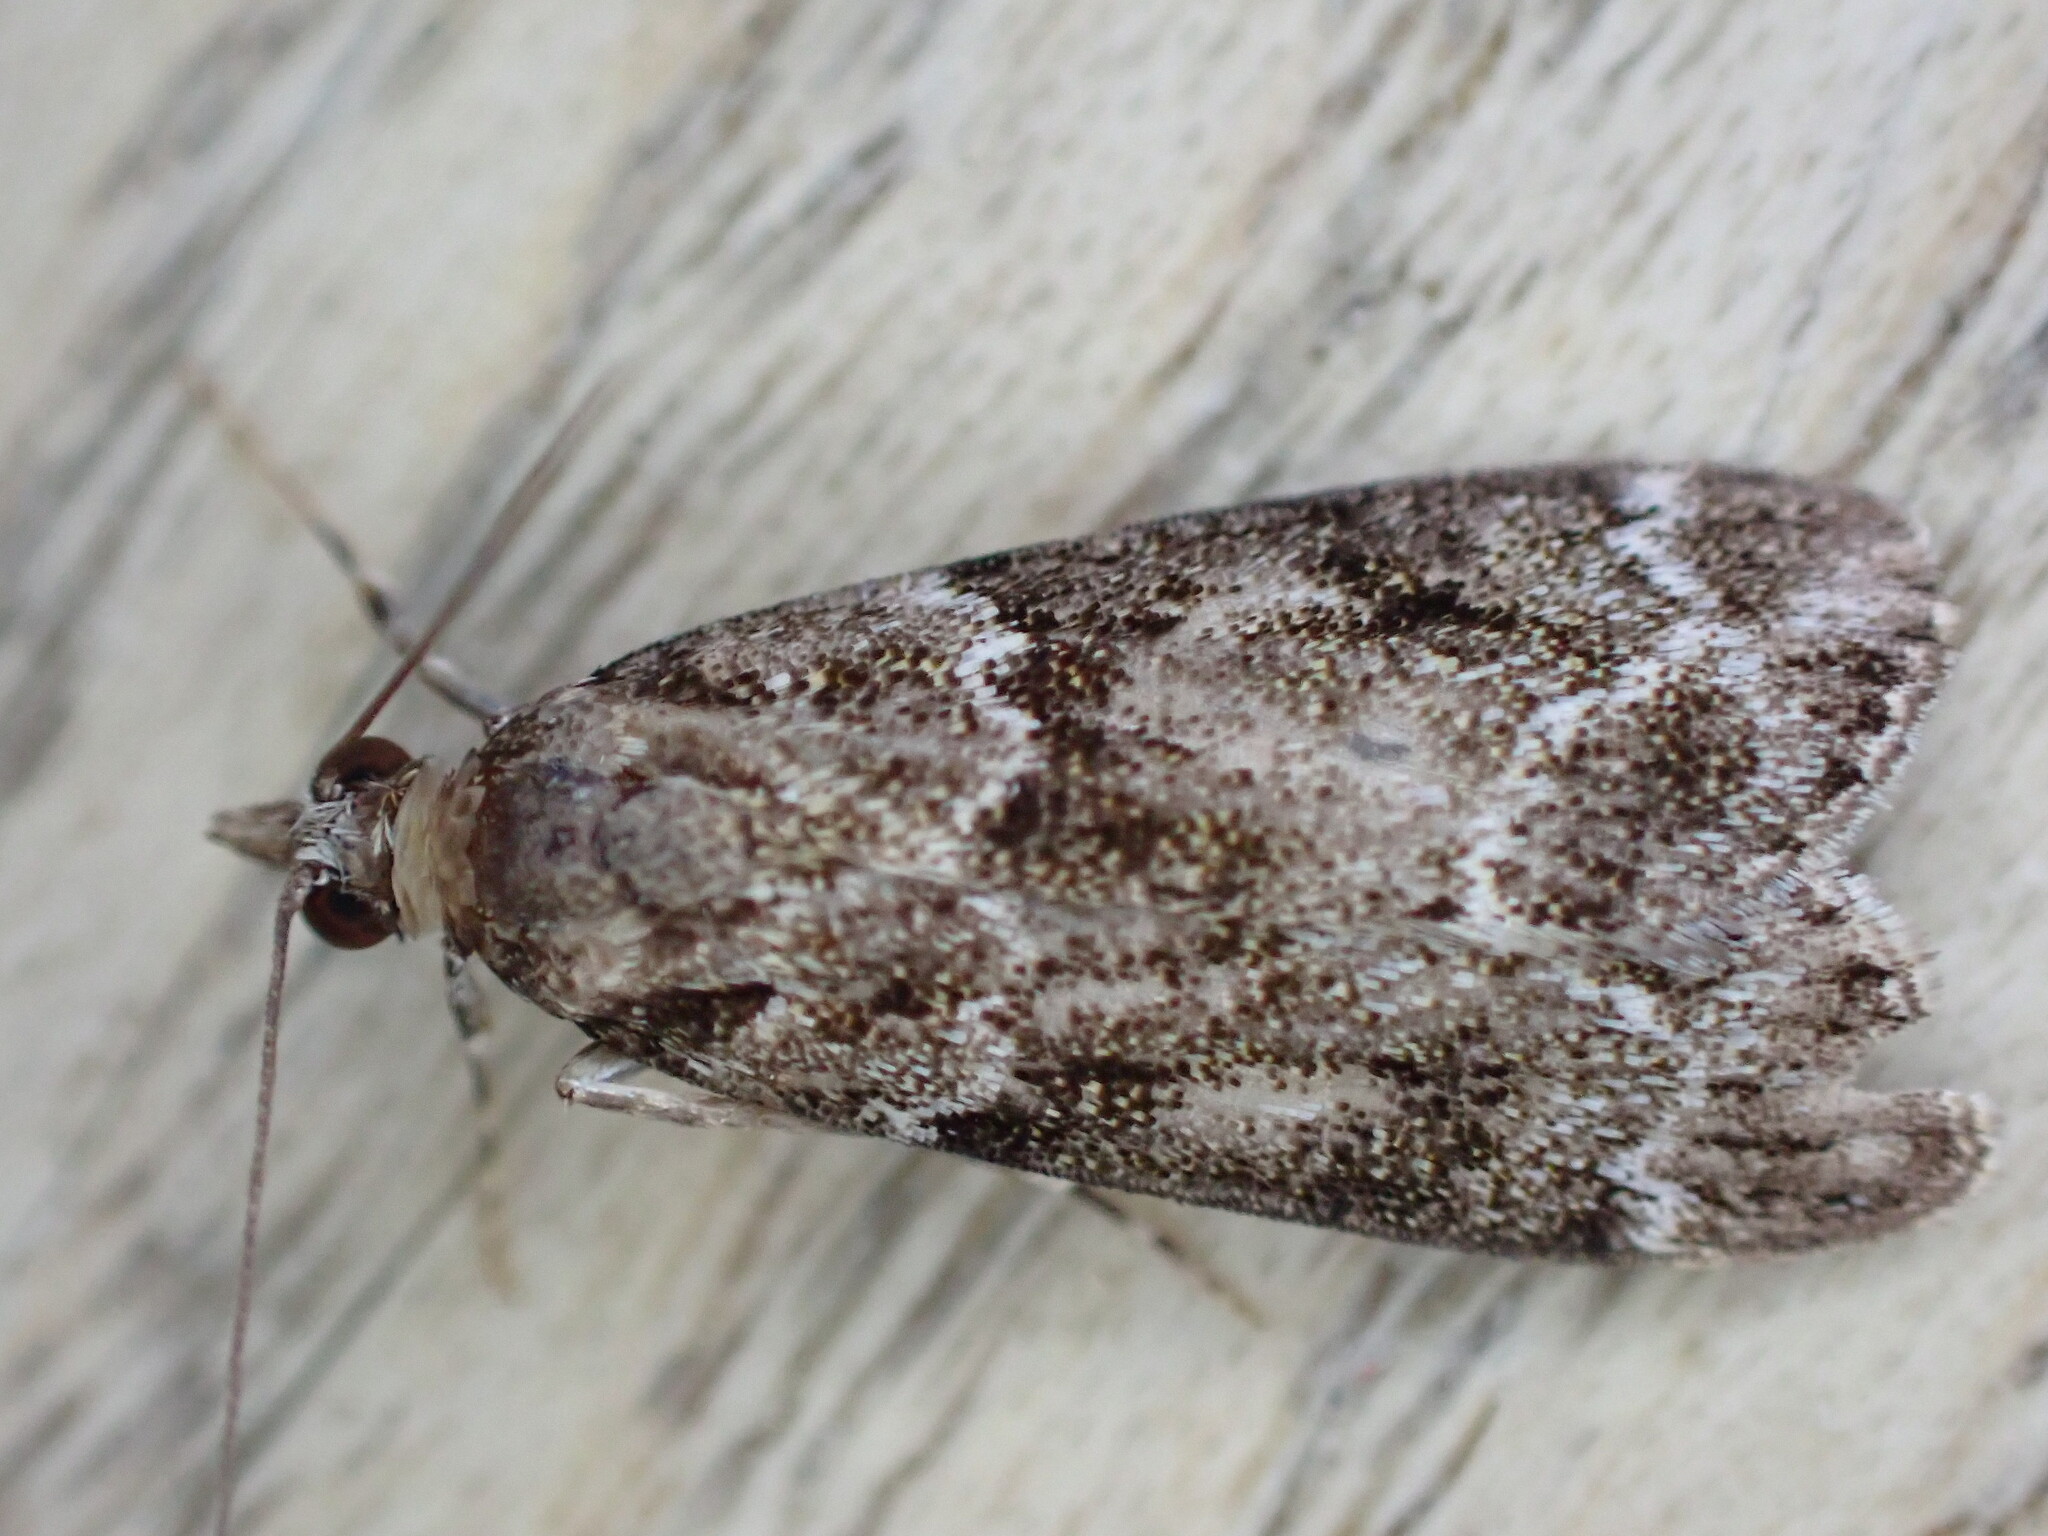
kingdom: Animalia
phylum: Arthropoda
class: Insecta
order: Lepidoptera
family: Crambidae
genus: Eudonia
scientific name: Eudonia mercurella
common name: Small grey
